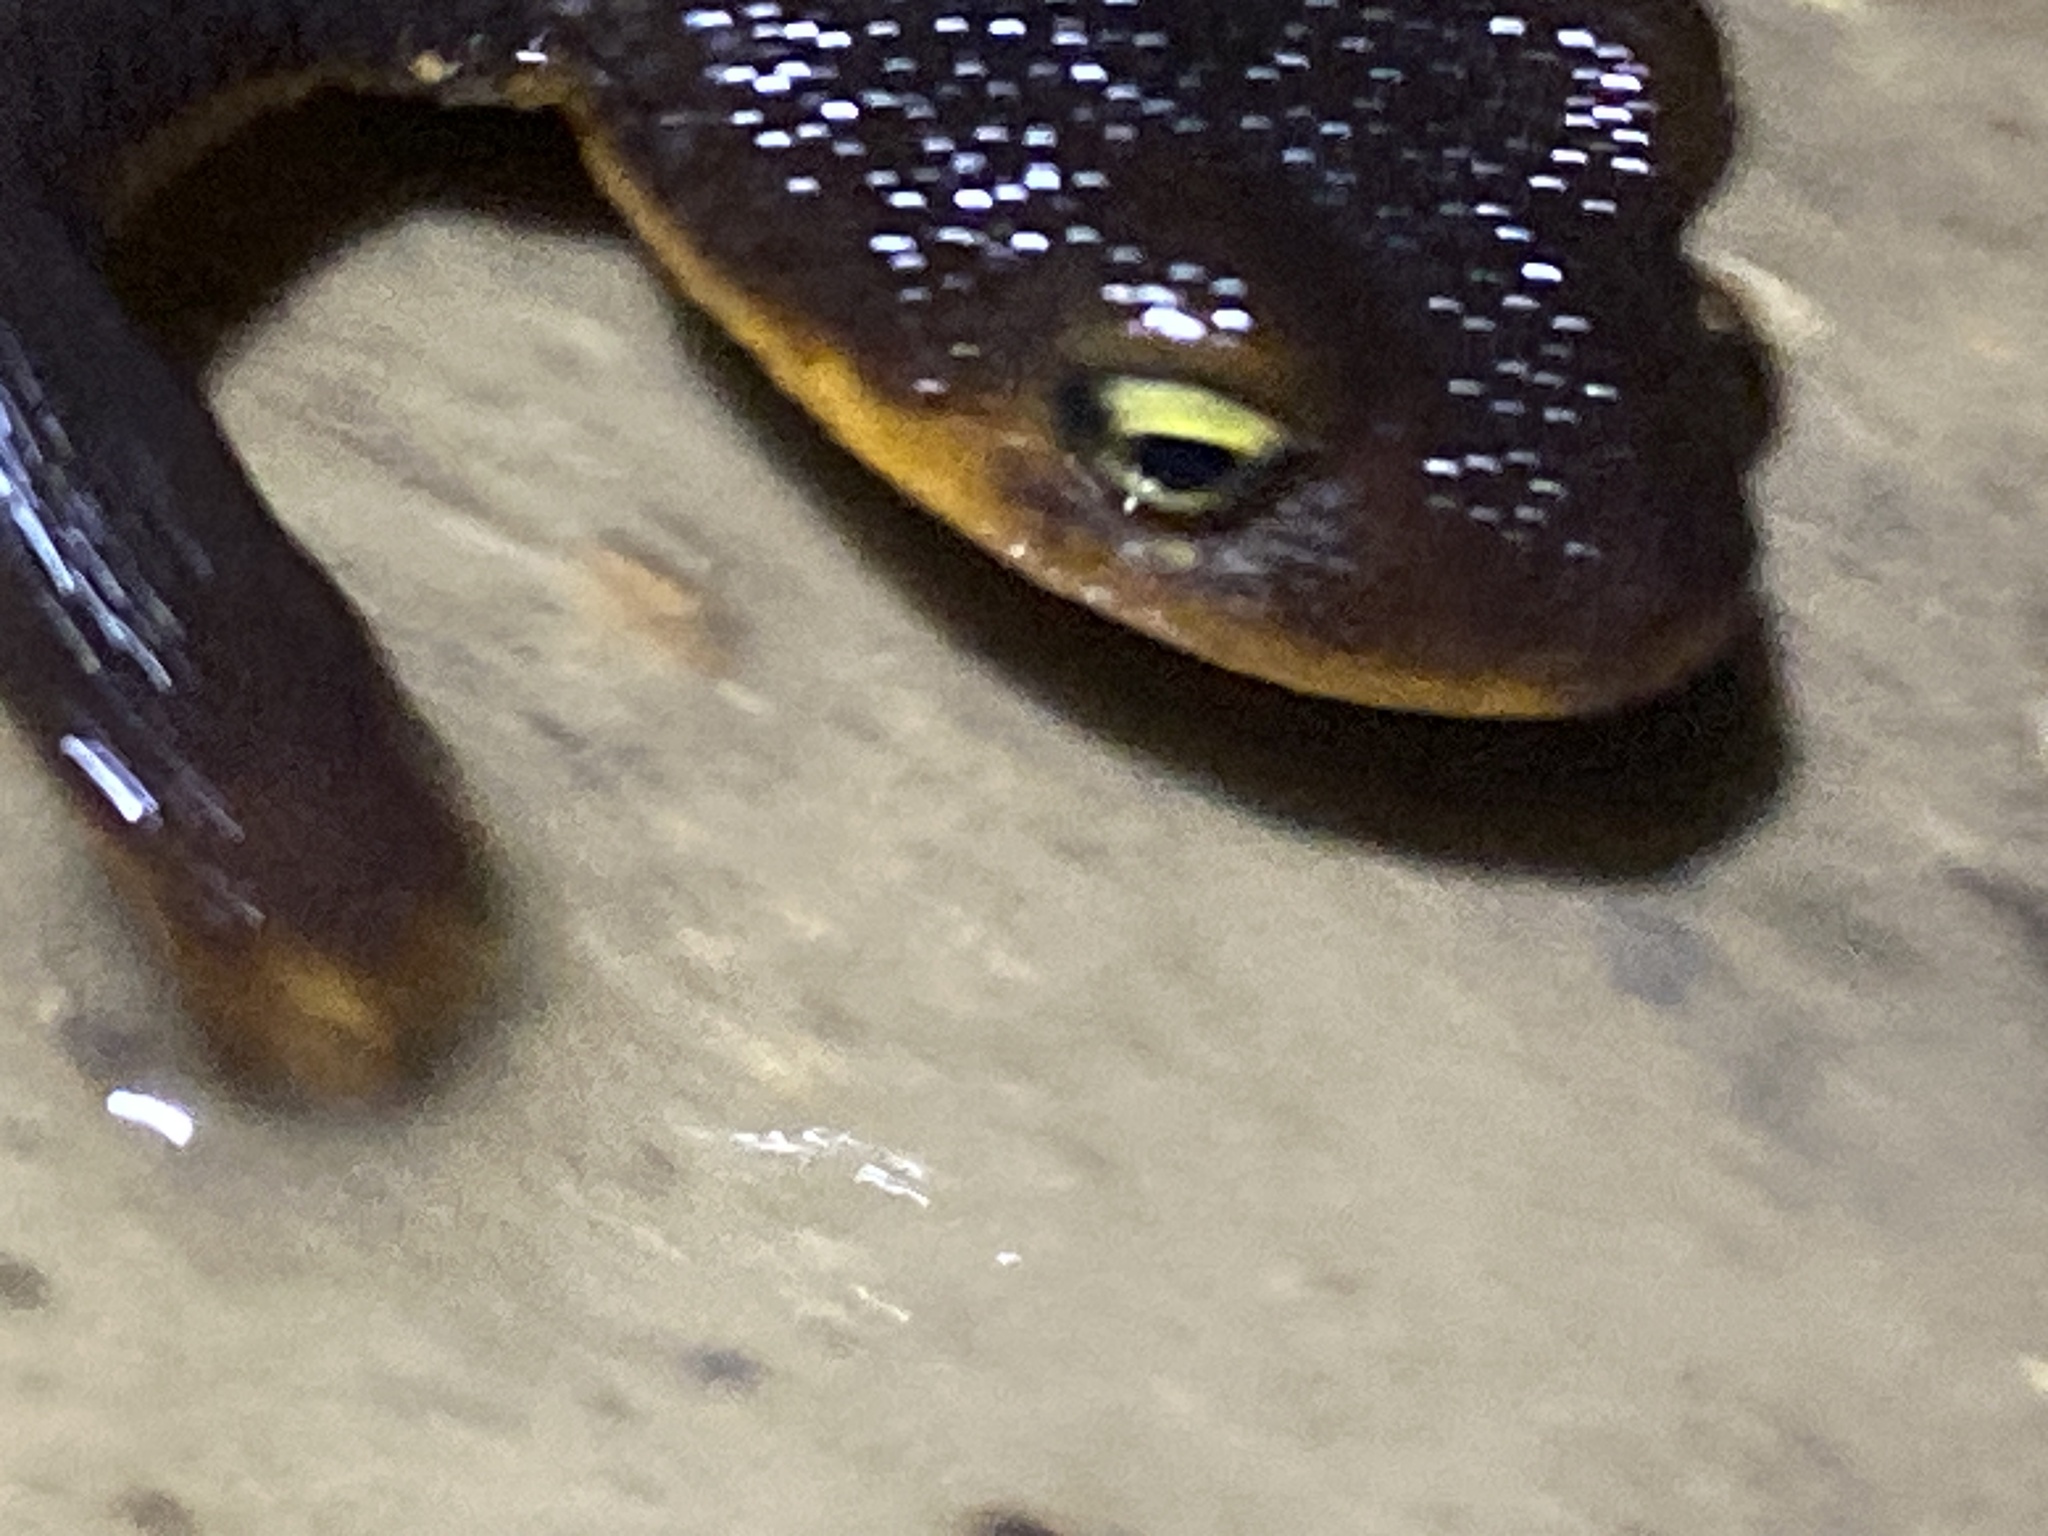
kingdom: Animalia
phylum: Chordata
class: Amphibia
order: Caudata
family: Salamandridae
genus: Taricha
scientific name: Taricha granulosa
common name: Roughskin newt
